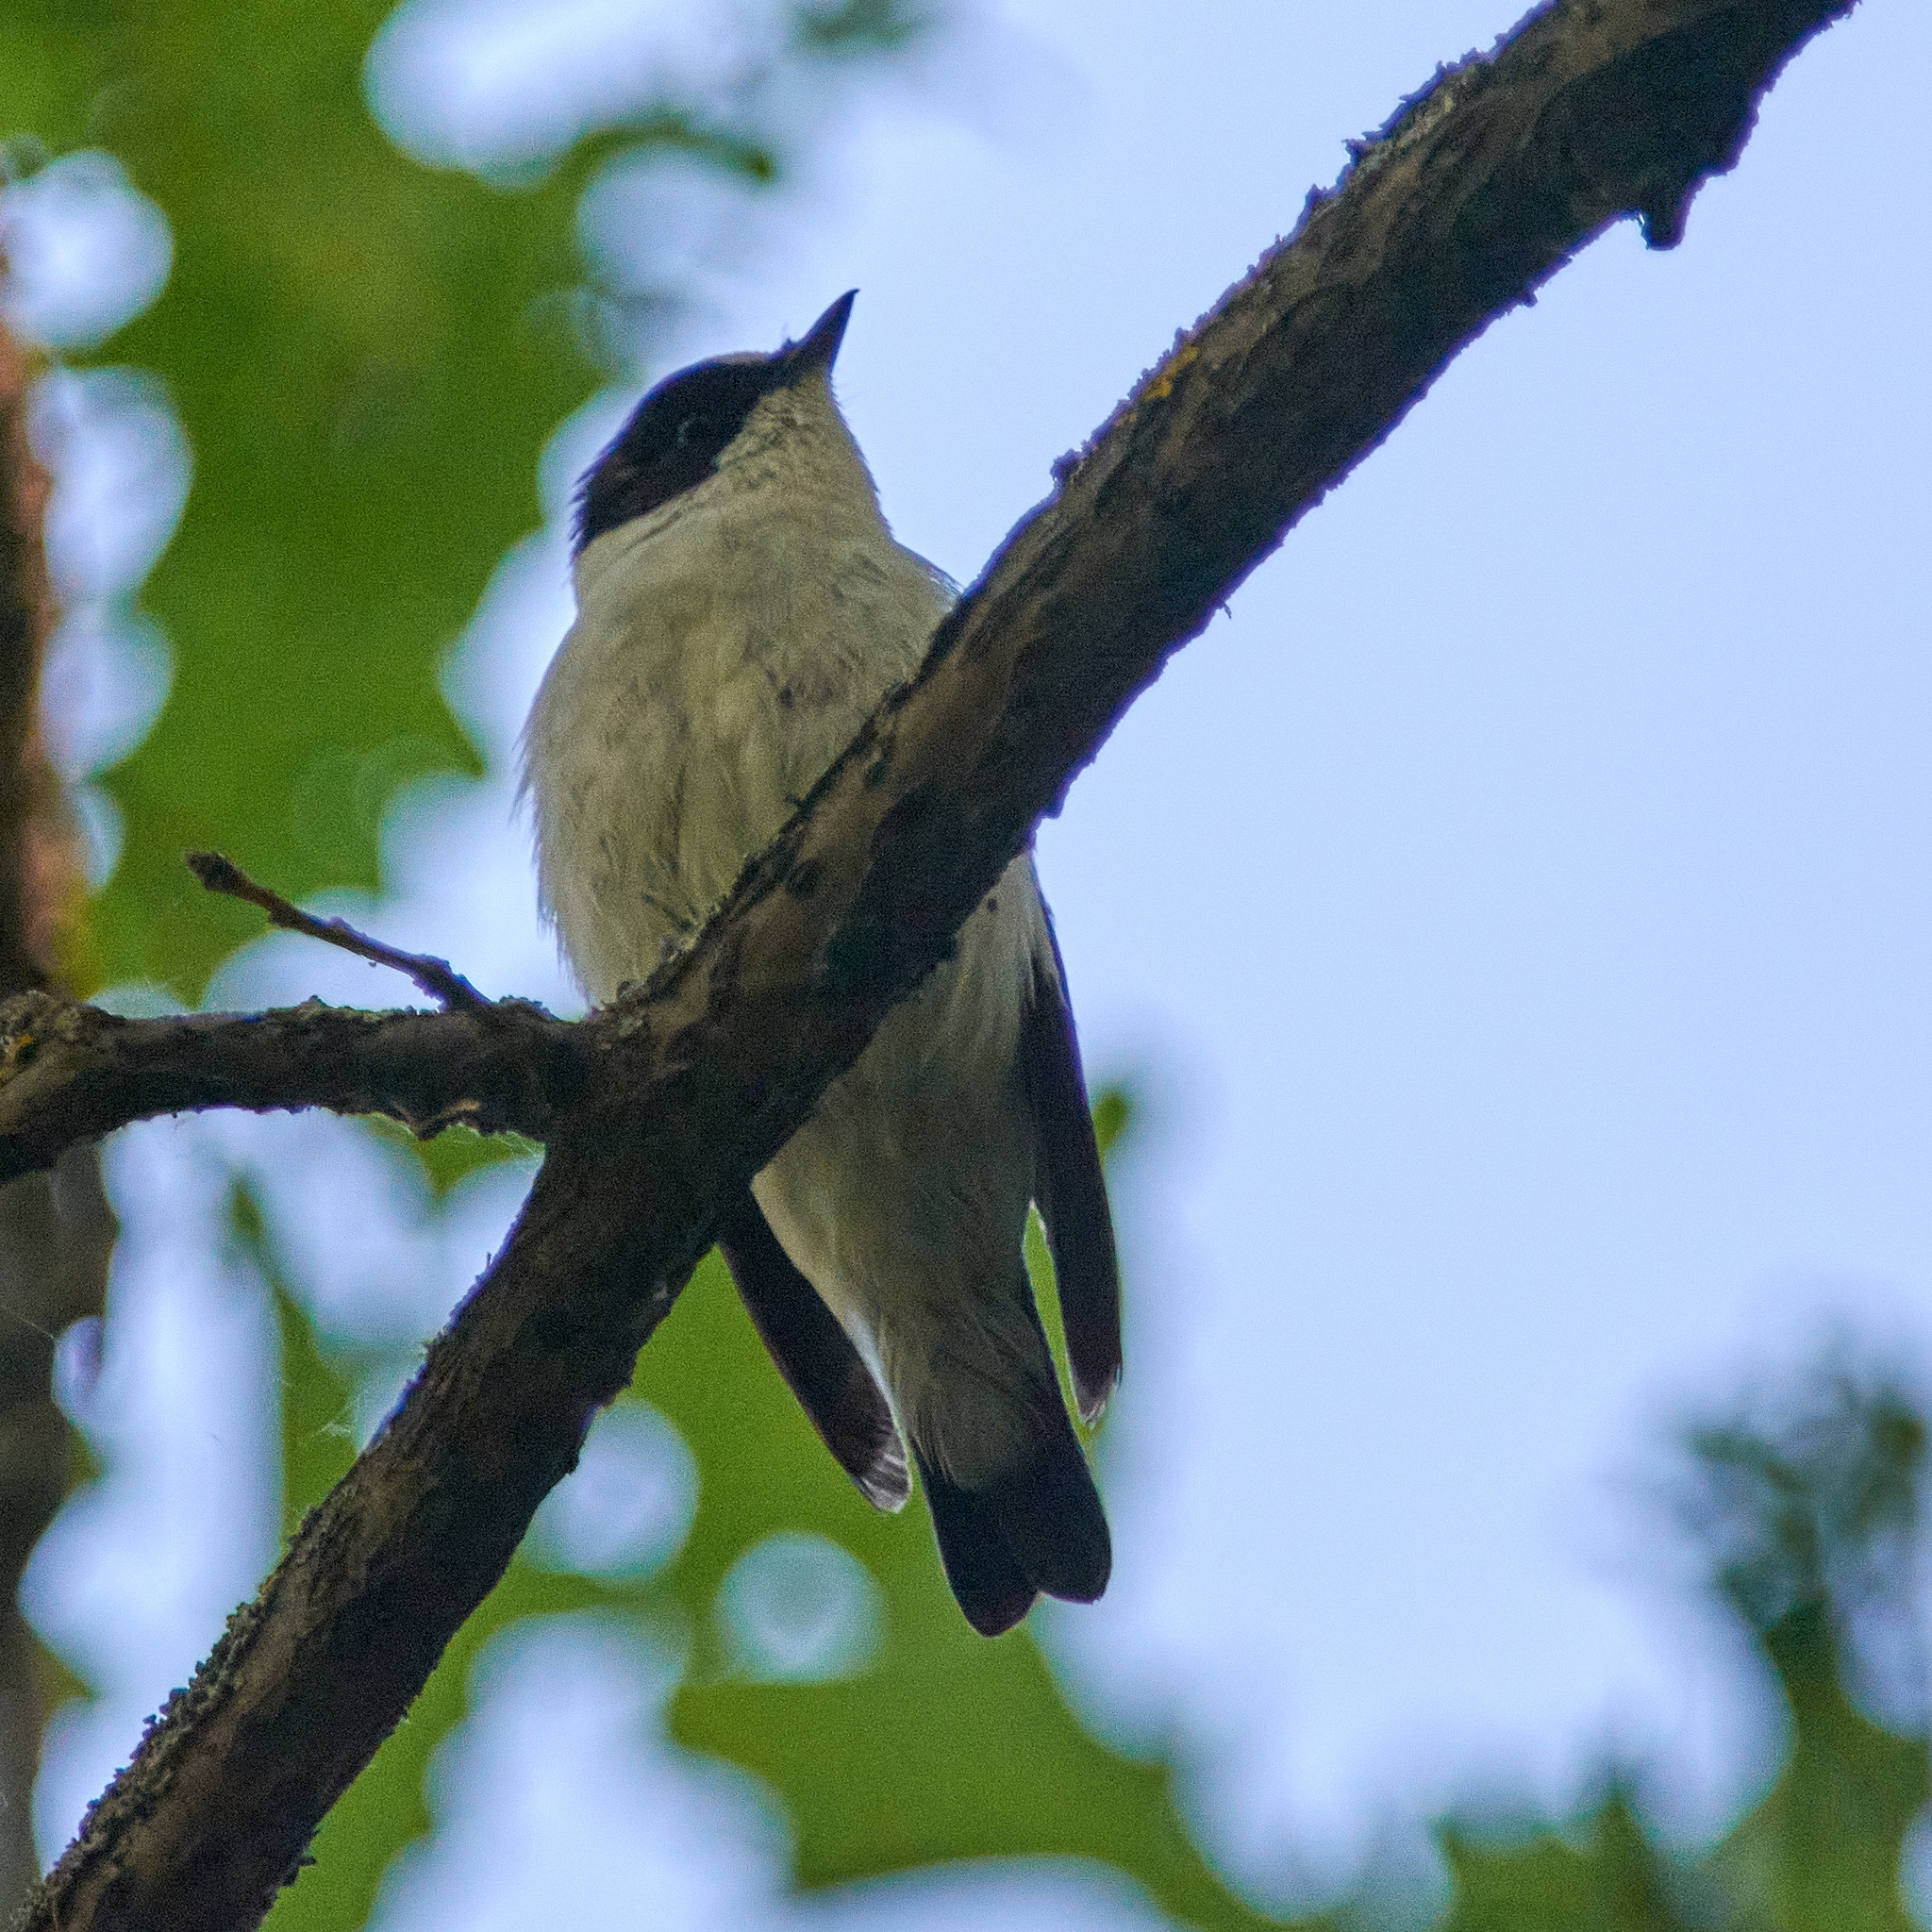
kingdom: Animalia
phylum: Chordata
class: Aves
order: Passeriformes
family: Muscicapidae
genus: Ficedula
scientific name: Ficedula albicollis
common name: Collared flycatcher
